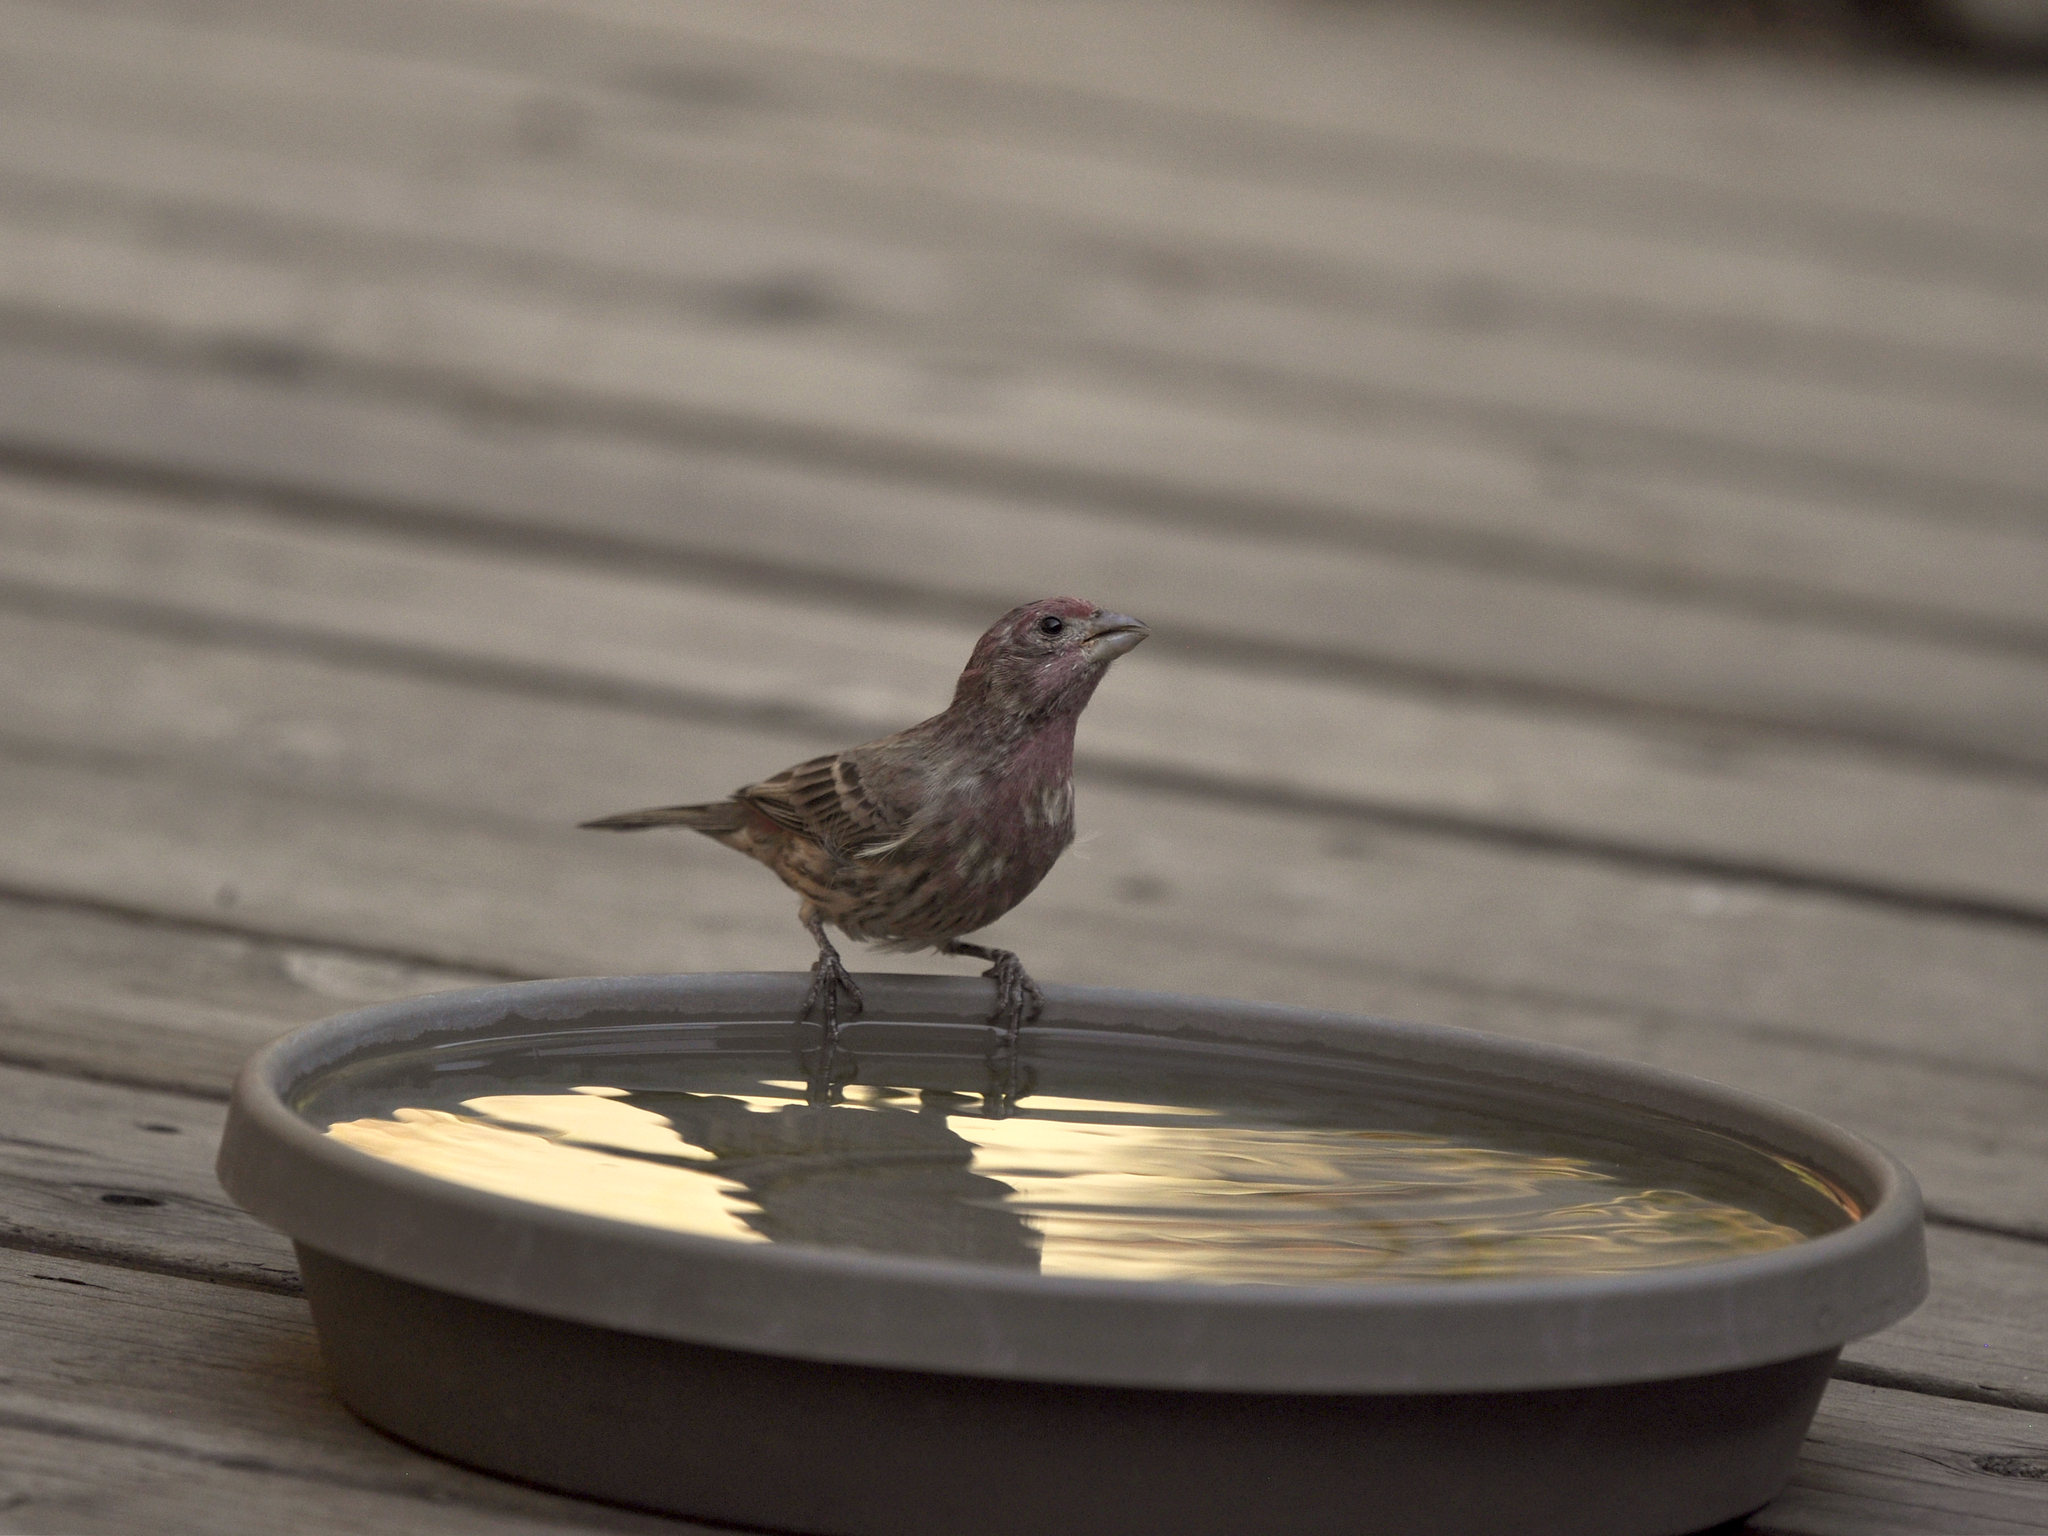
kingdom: Animalia
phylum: Chordata
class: Aves
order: Passeriformes
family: Fringillidae
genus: Haemorhous
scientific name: Haemorhous mexicanus
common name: House finch
